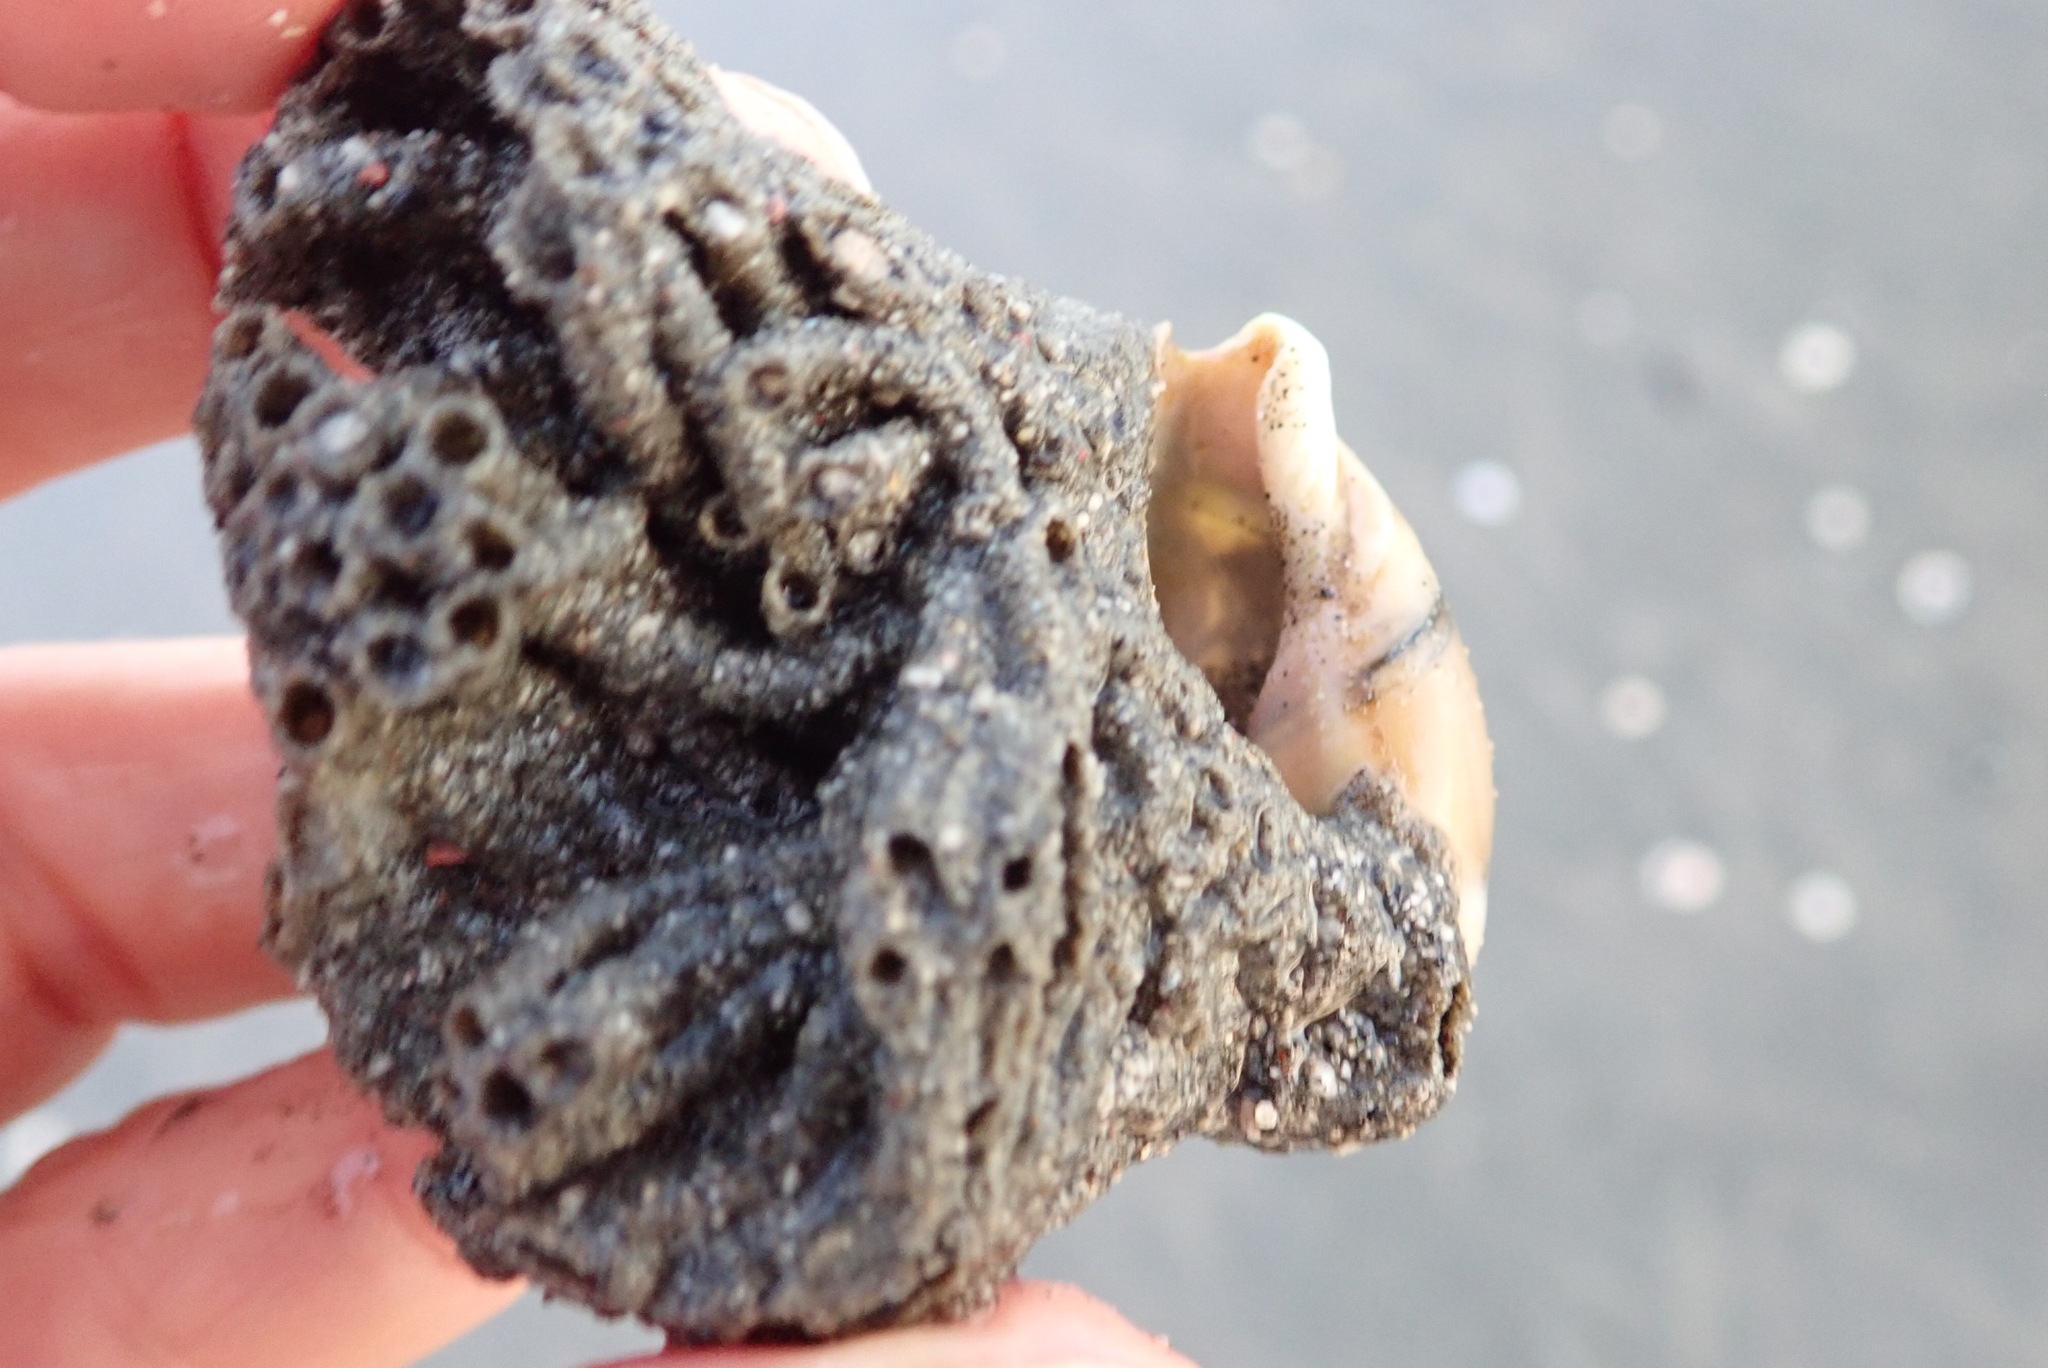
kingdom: Animalia
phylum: Mollusca
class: Gastropoda
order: Neogastropoda
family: Ancillariidae
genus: Amalda
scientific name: Amalda mucronata
